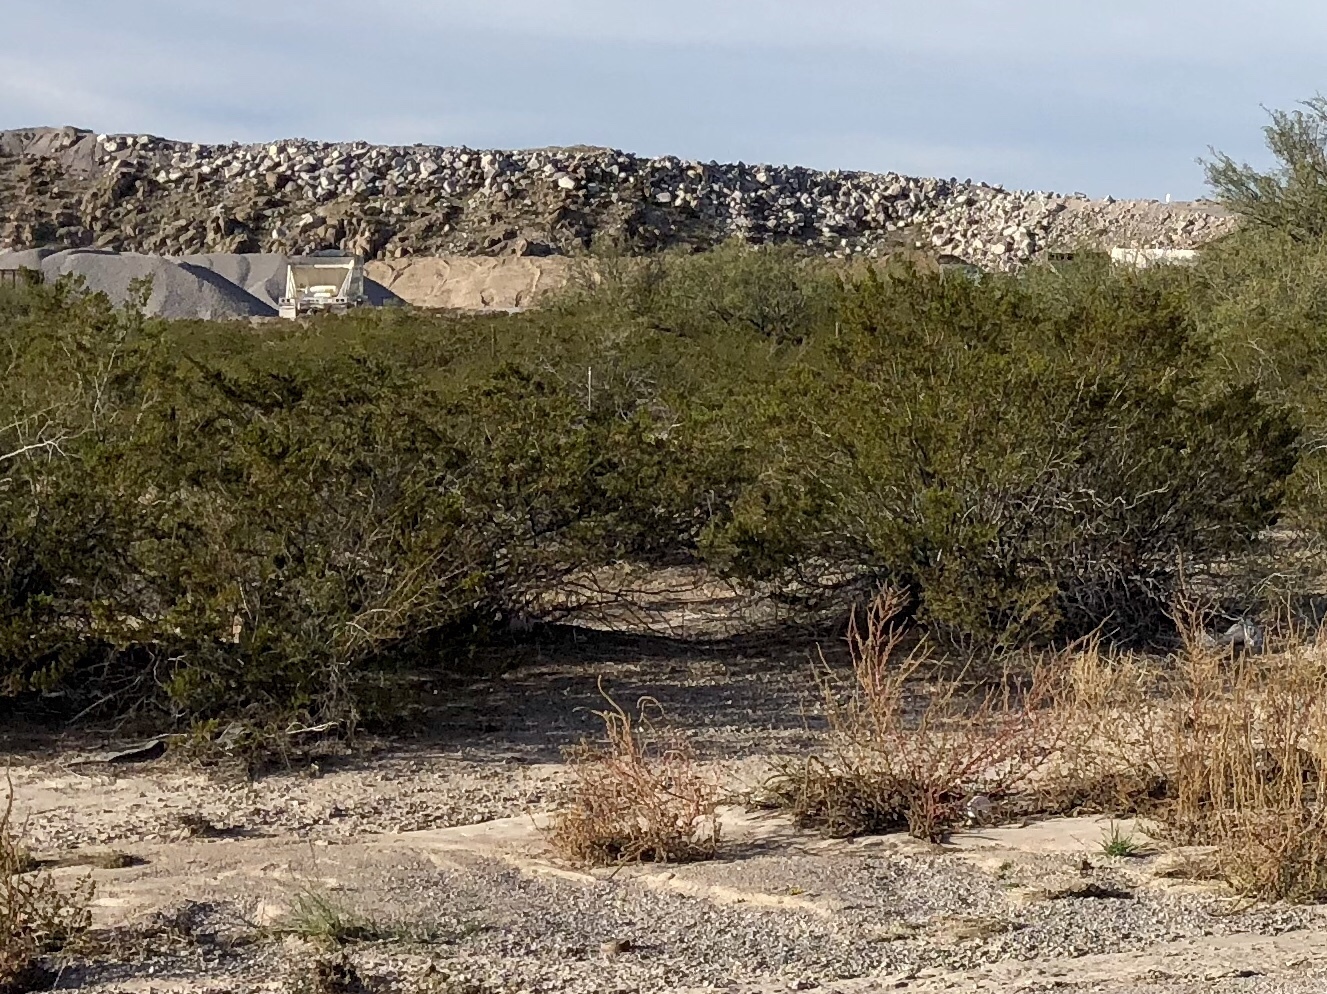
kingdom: Plantae
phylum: Tracheophyta
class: Magnoliopsida
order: Zygophyllales
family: Zygophyllaceae
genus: Larrea
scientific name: Larrea tridentata
